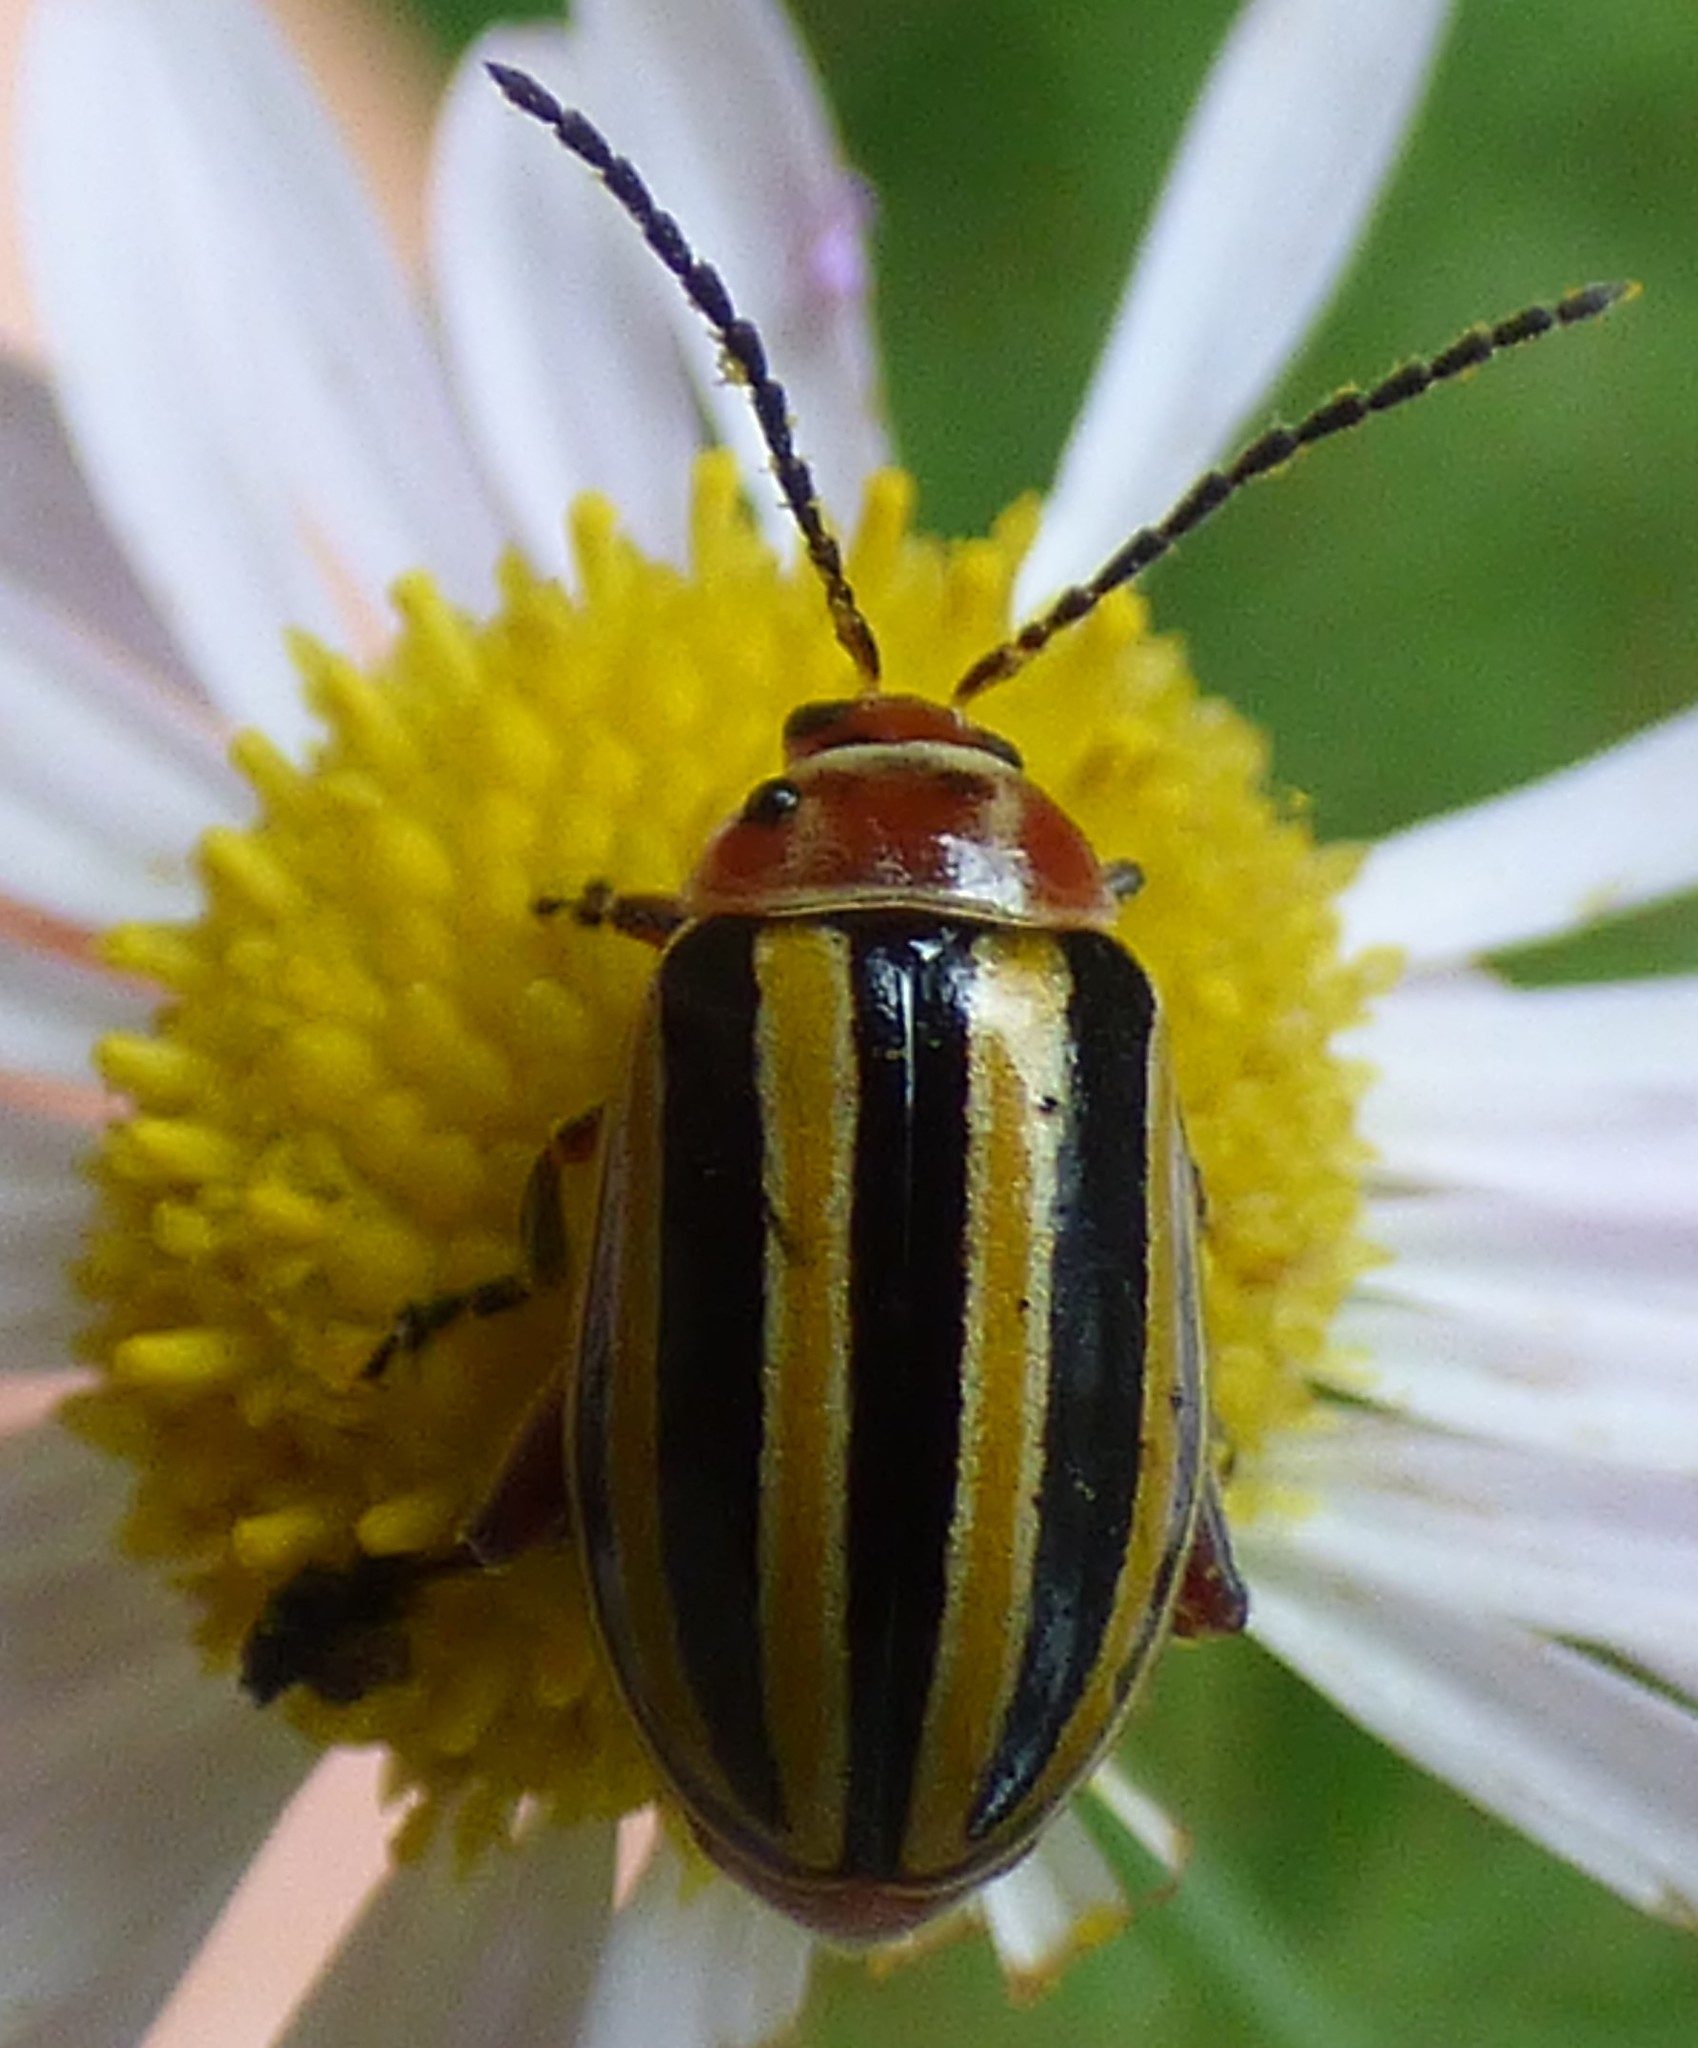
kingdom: Animalia
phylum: Arthropoda
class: Insecta
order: Coleoptera
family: Chrysomelidae
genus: Disonycha
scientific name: Disonycha admirabila
